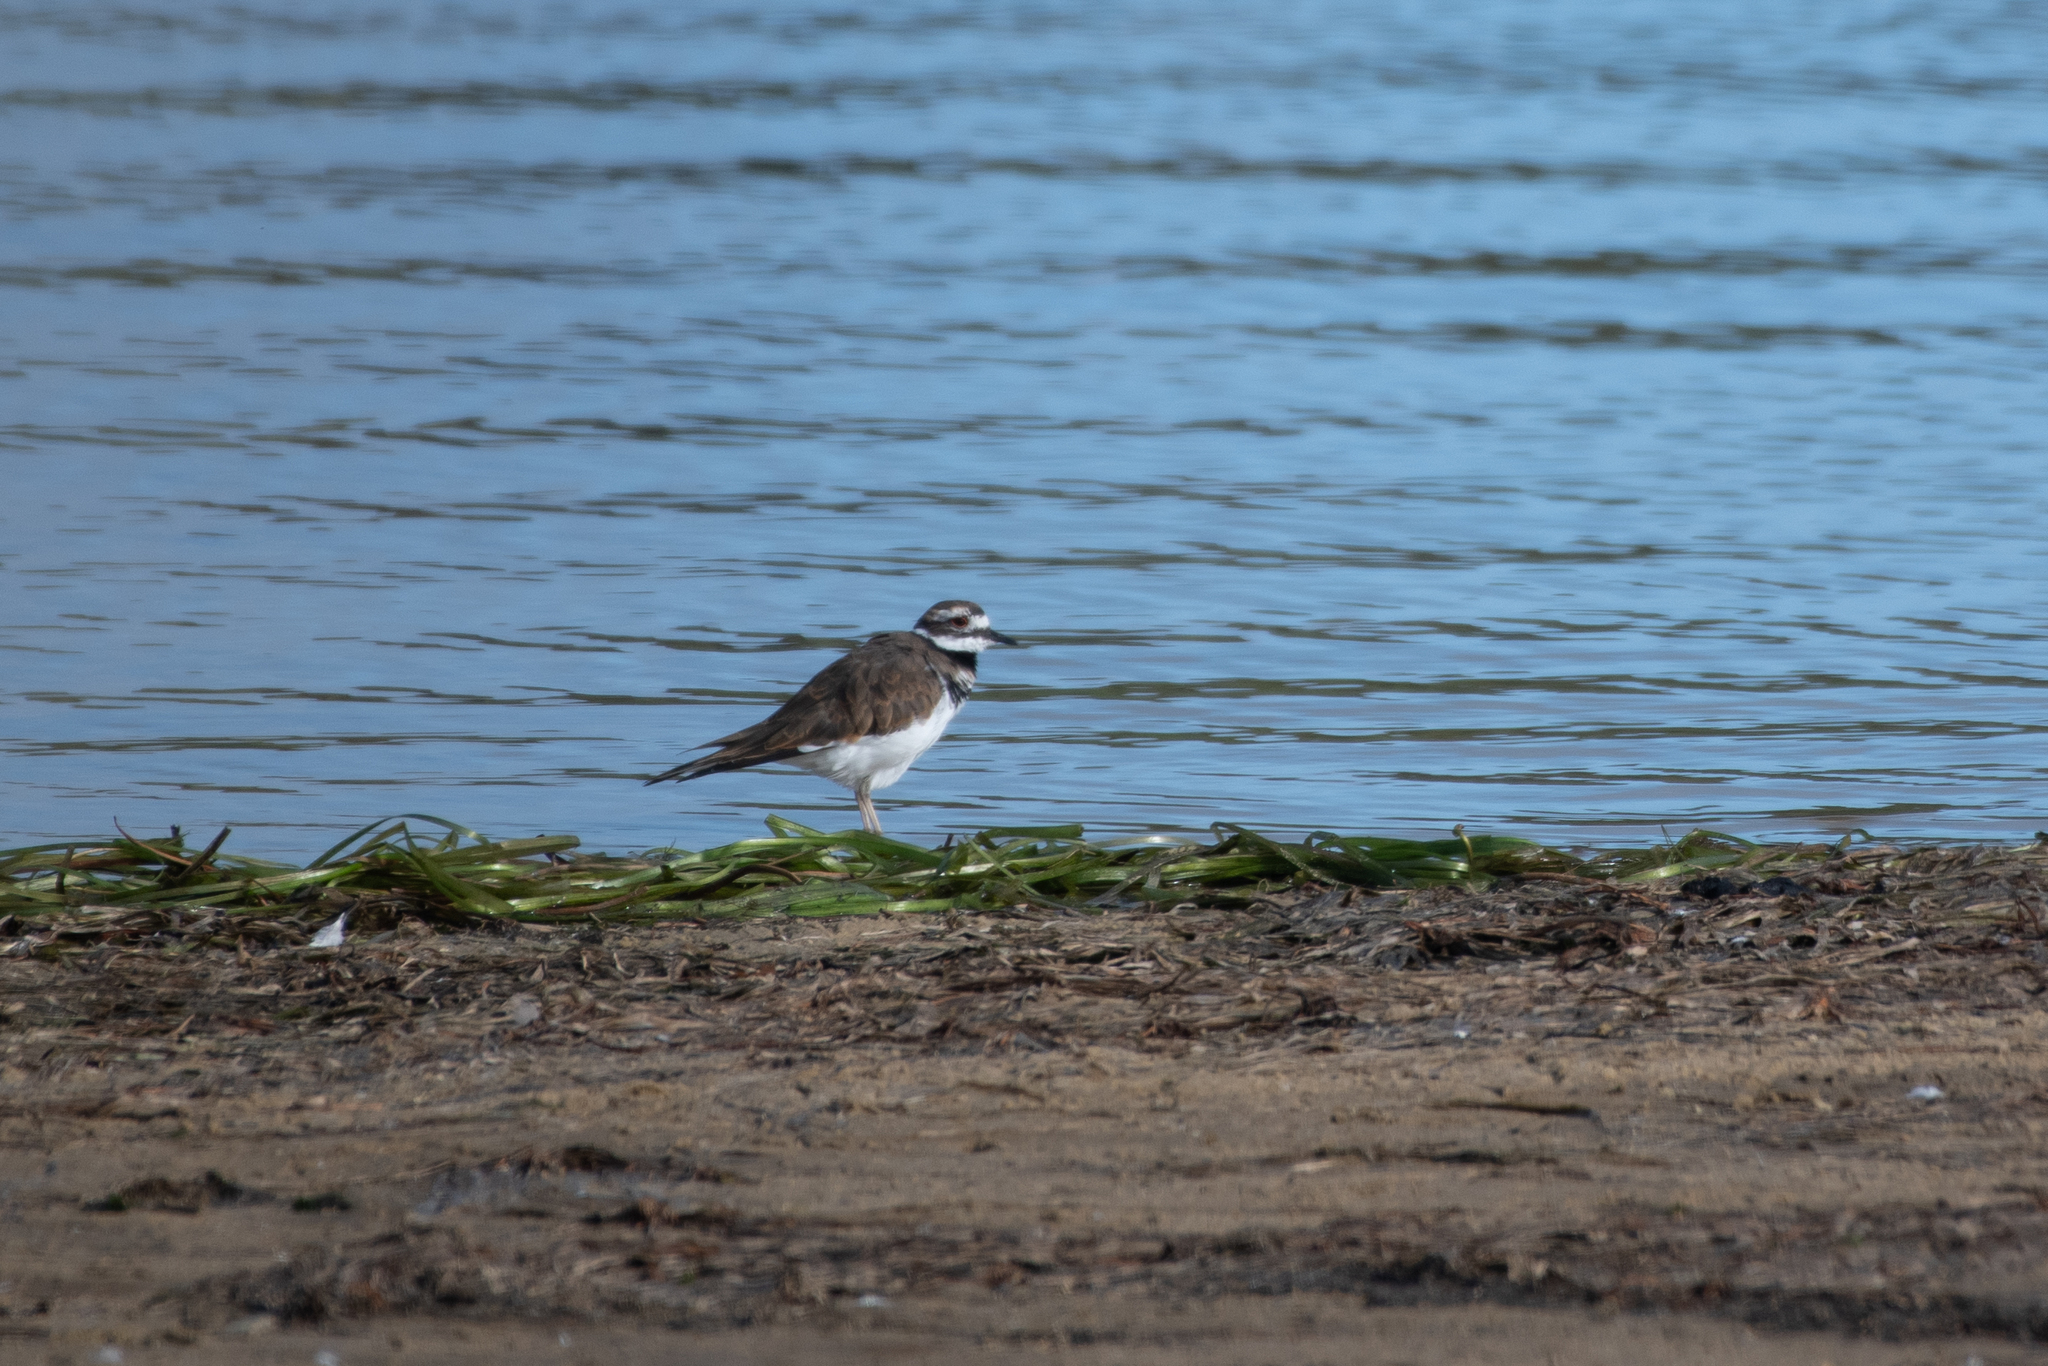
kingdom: Animalia
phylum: Chordata
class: Aves
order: Charadriiformes
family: Charadriidae
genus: Charadrius
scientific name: Charadrius vociferus
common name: Killdeer
